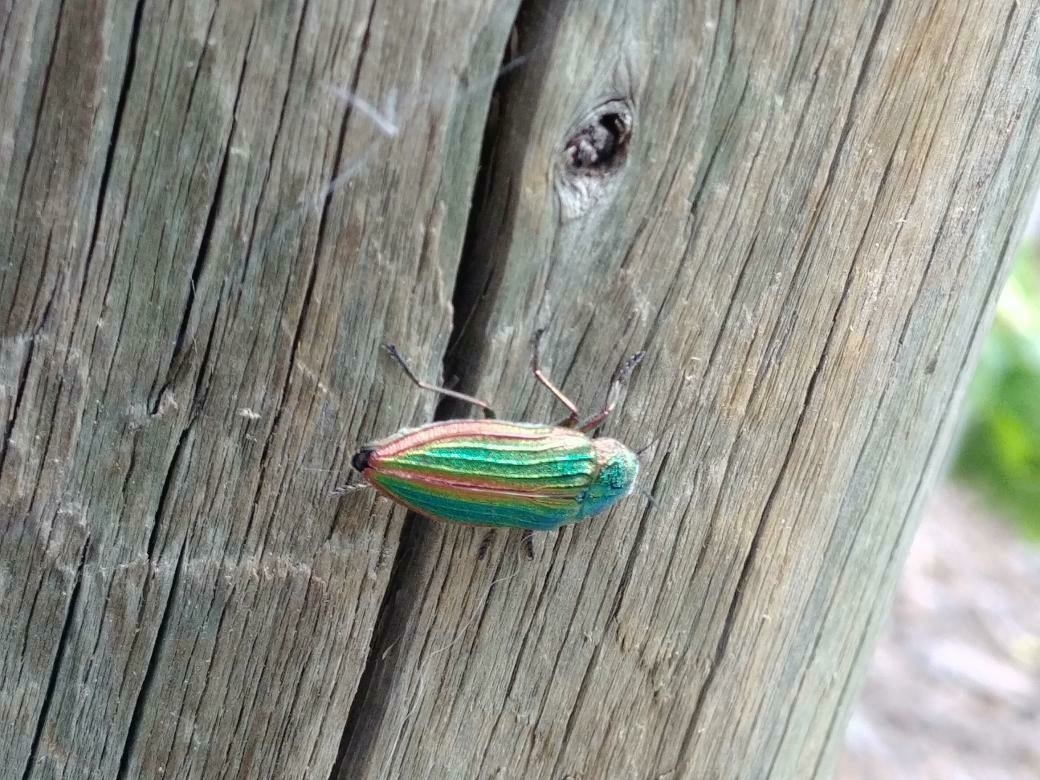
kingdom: Animalia
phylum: Arthropoda
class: Insecta
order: Coleoptera
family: Buprestidae
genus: Buprestis
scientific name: Buprestis aurulenta
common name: Golden buprestid
